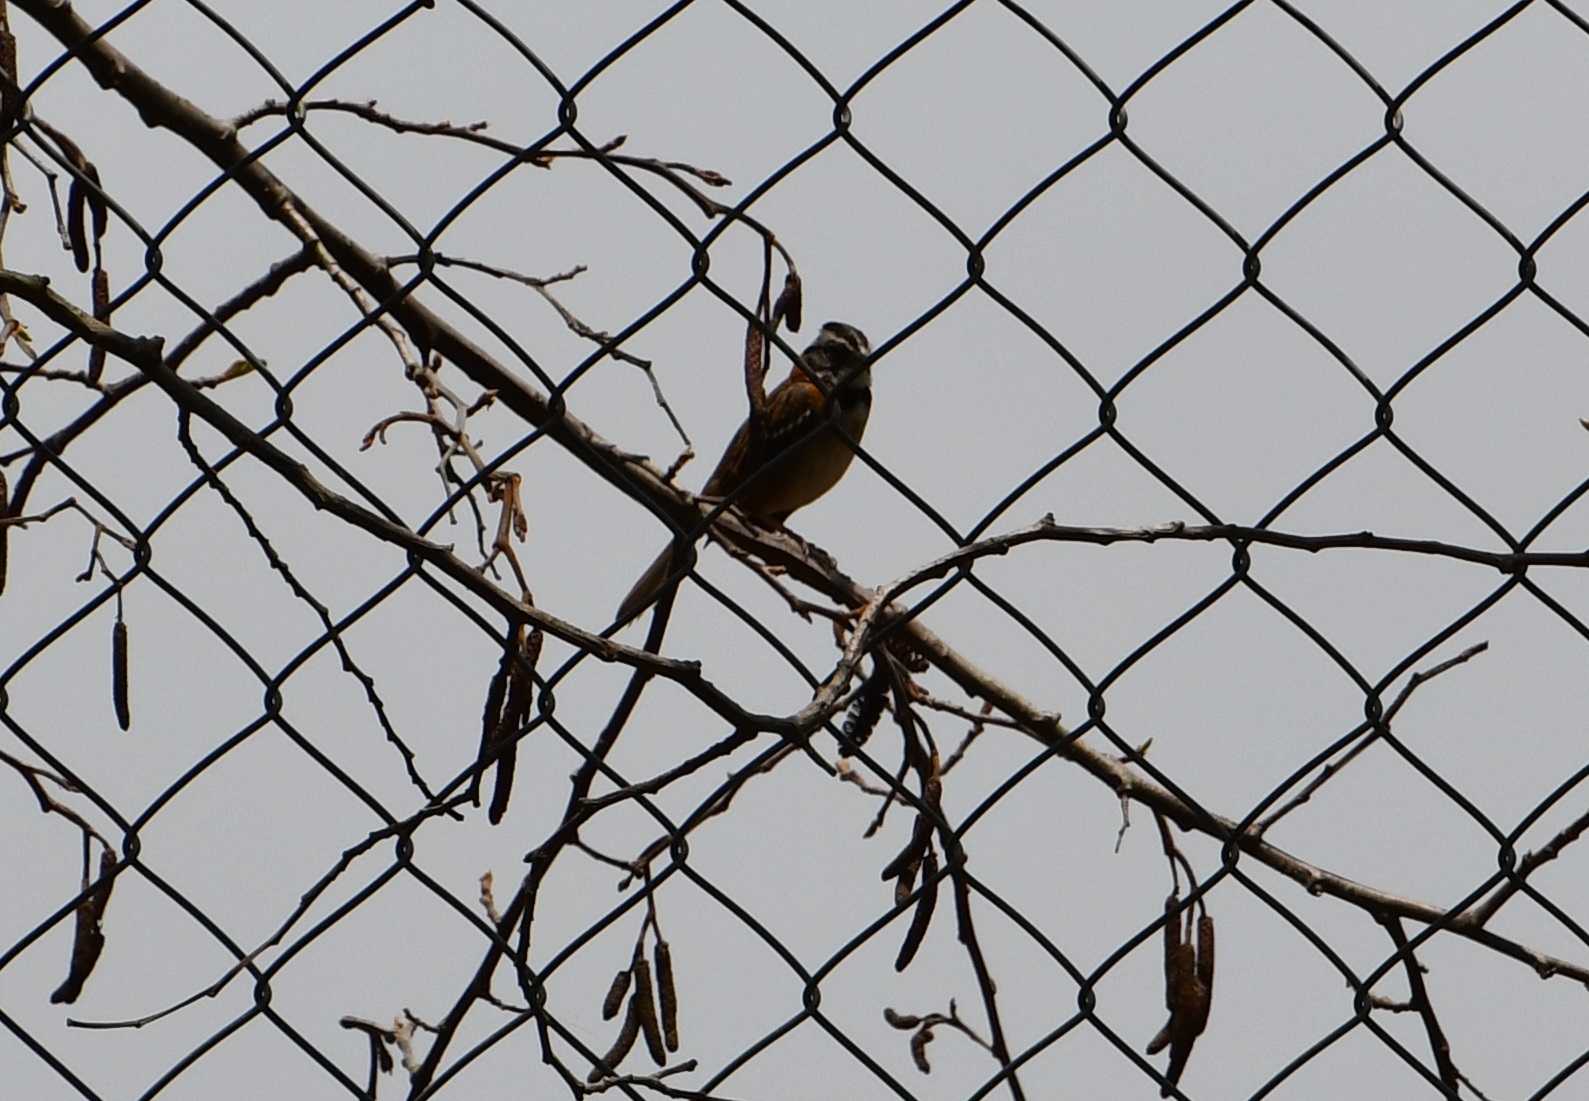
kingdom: Animalia
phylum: Chordata
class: Aves
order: Passeriformes
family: Passerellidae
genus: Zonotrichia
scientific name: Zonotrichia capensis
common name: Rufous-collared sparrow
